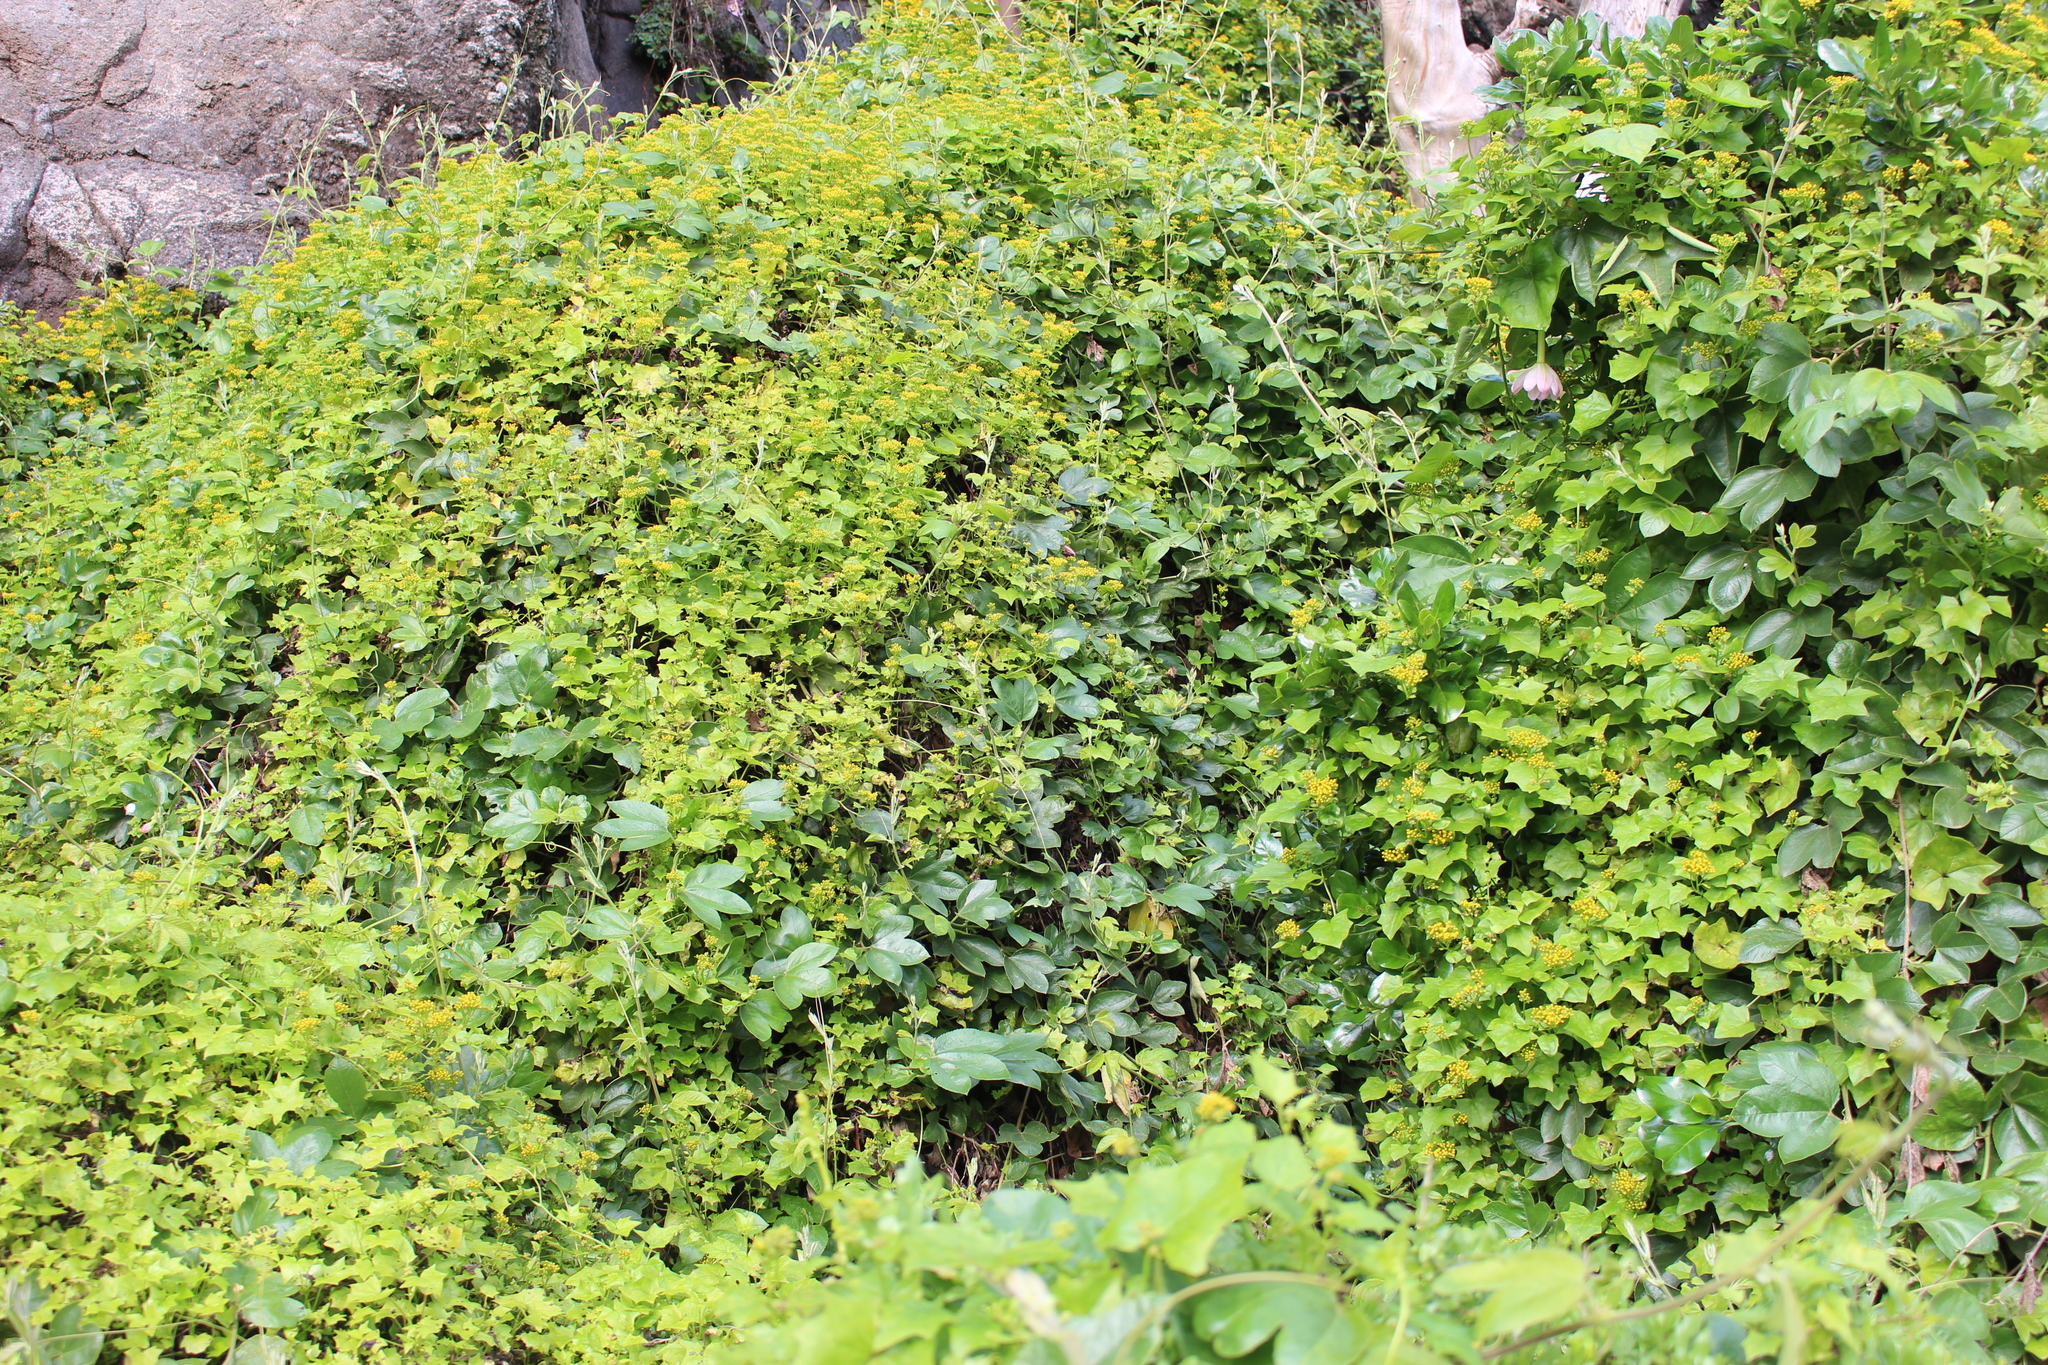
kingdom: Plantae
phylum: Tracheophyta
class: Magnoliopsida
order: Asterales
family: Asteraceae
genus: Delairea
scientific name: Delairea odorata
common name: Cape-ivy
